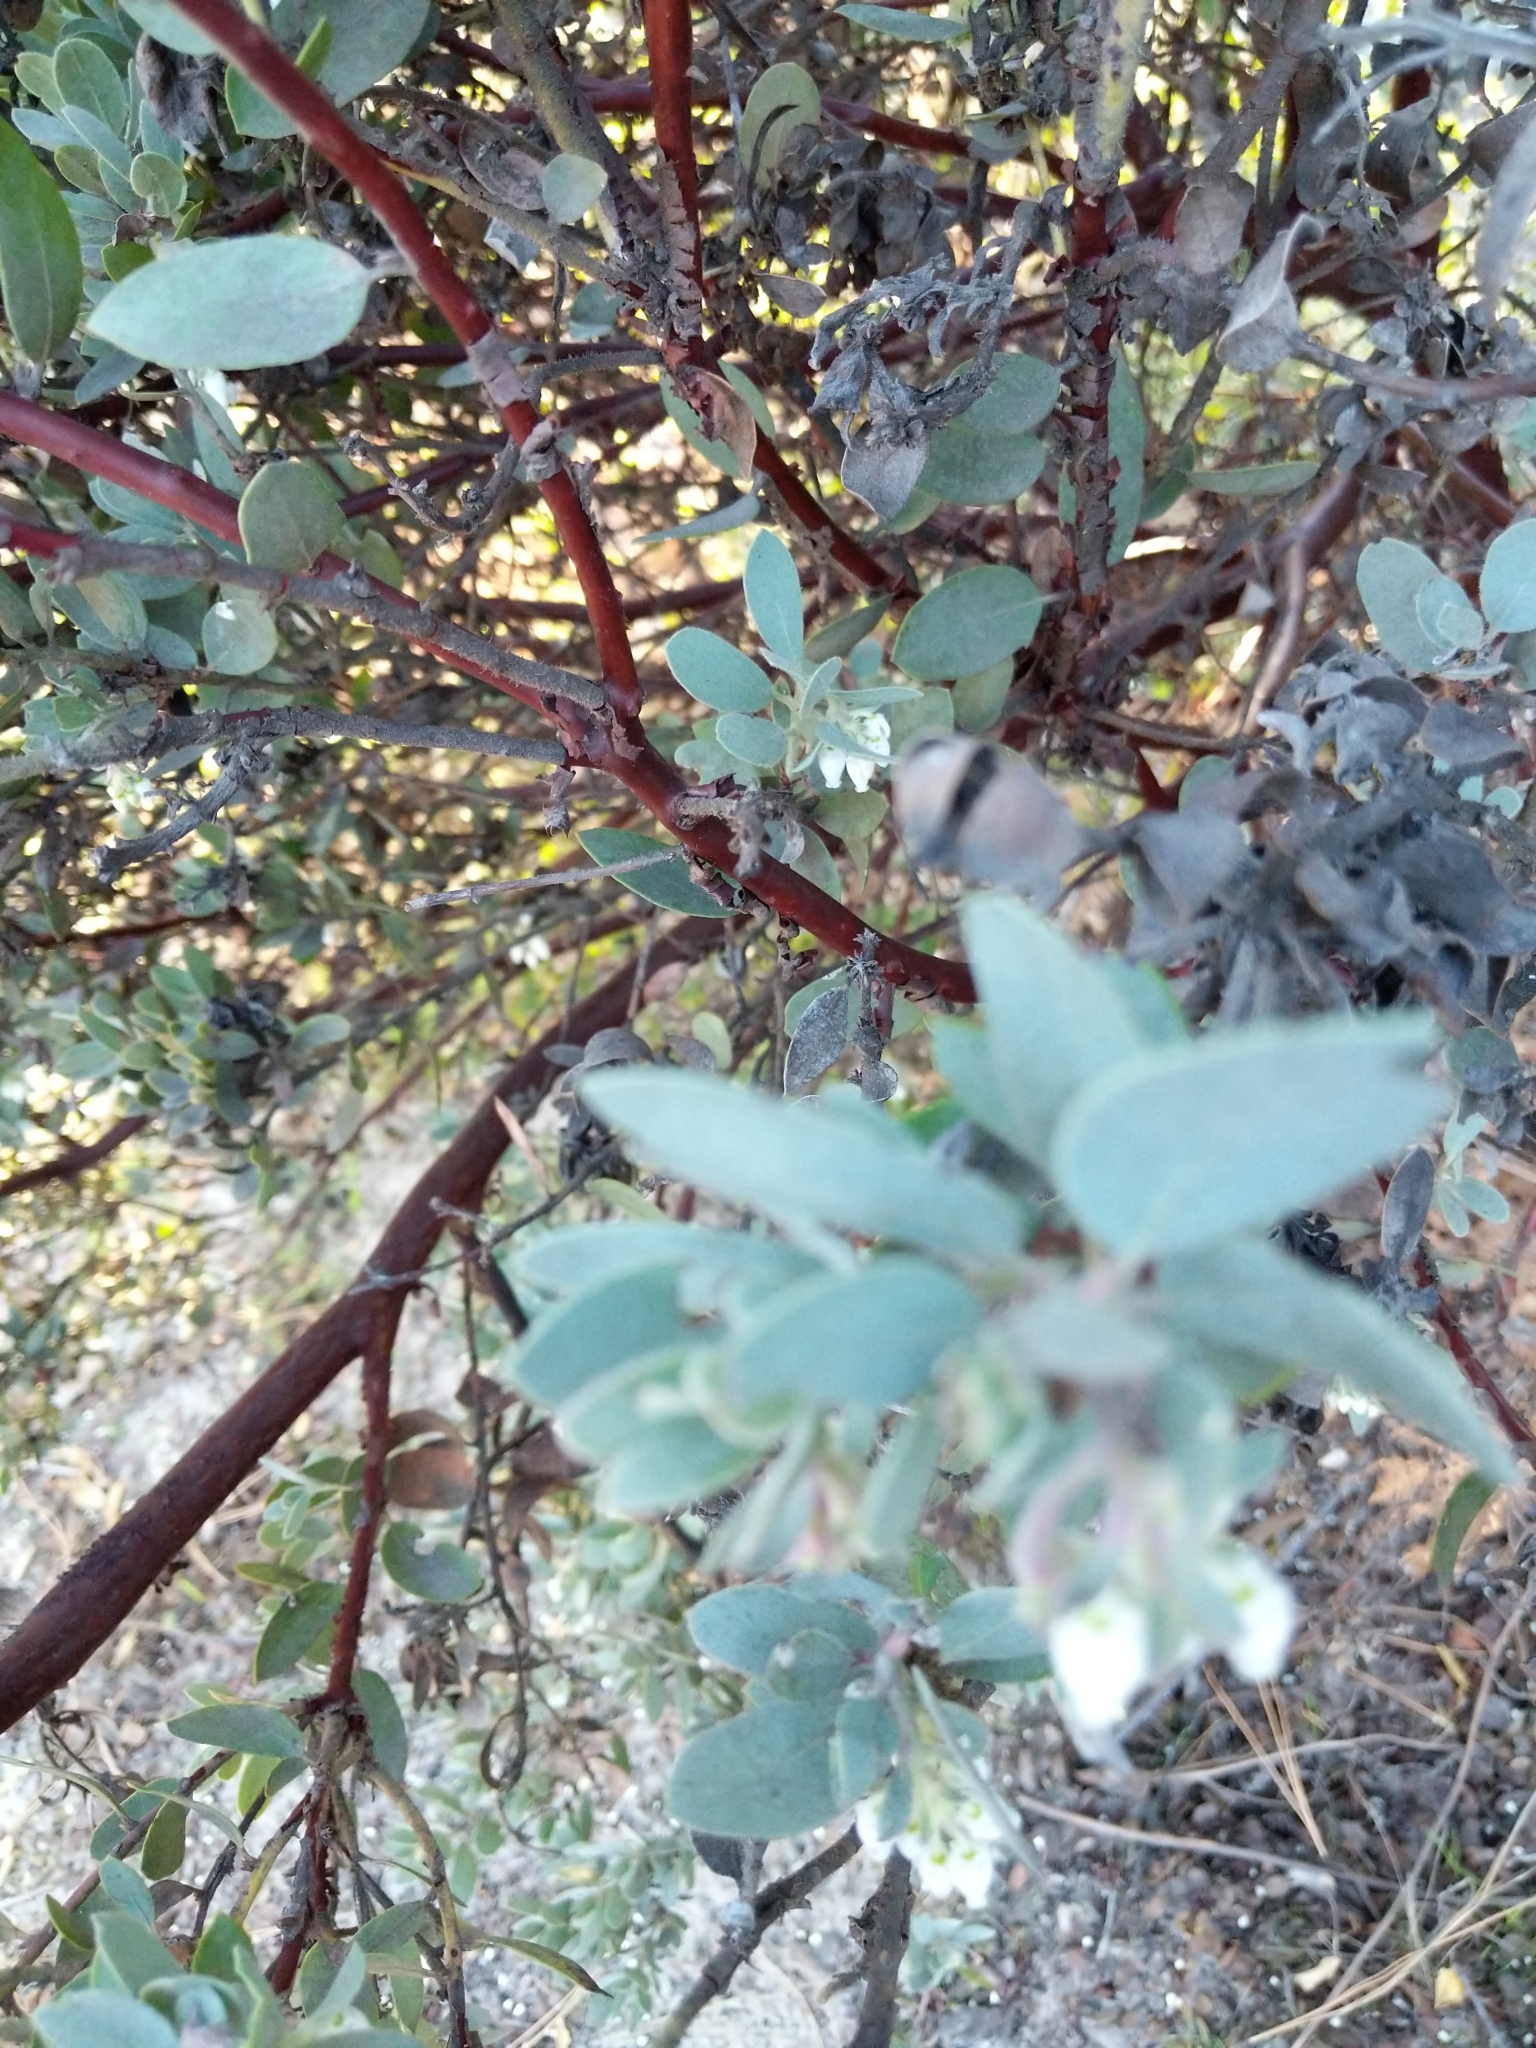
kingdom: Plantae
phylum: Tracheophyta
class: Magnoliopsida
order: Ericales
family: Ericaceae
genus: Arctostaphylos
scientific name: Arctostaphylos silvicola
